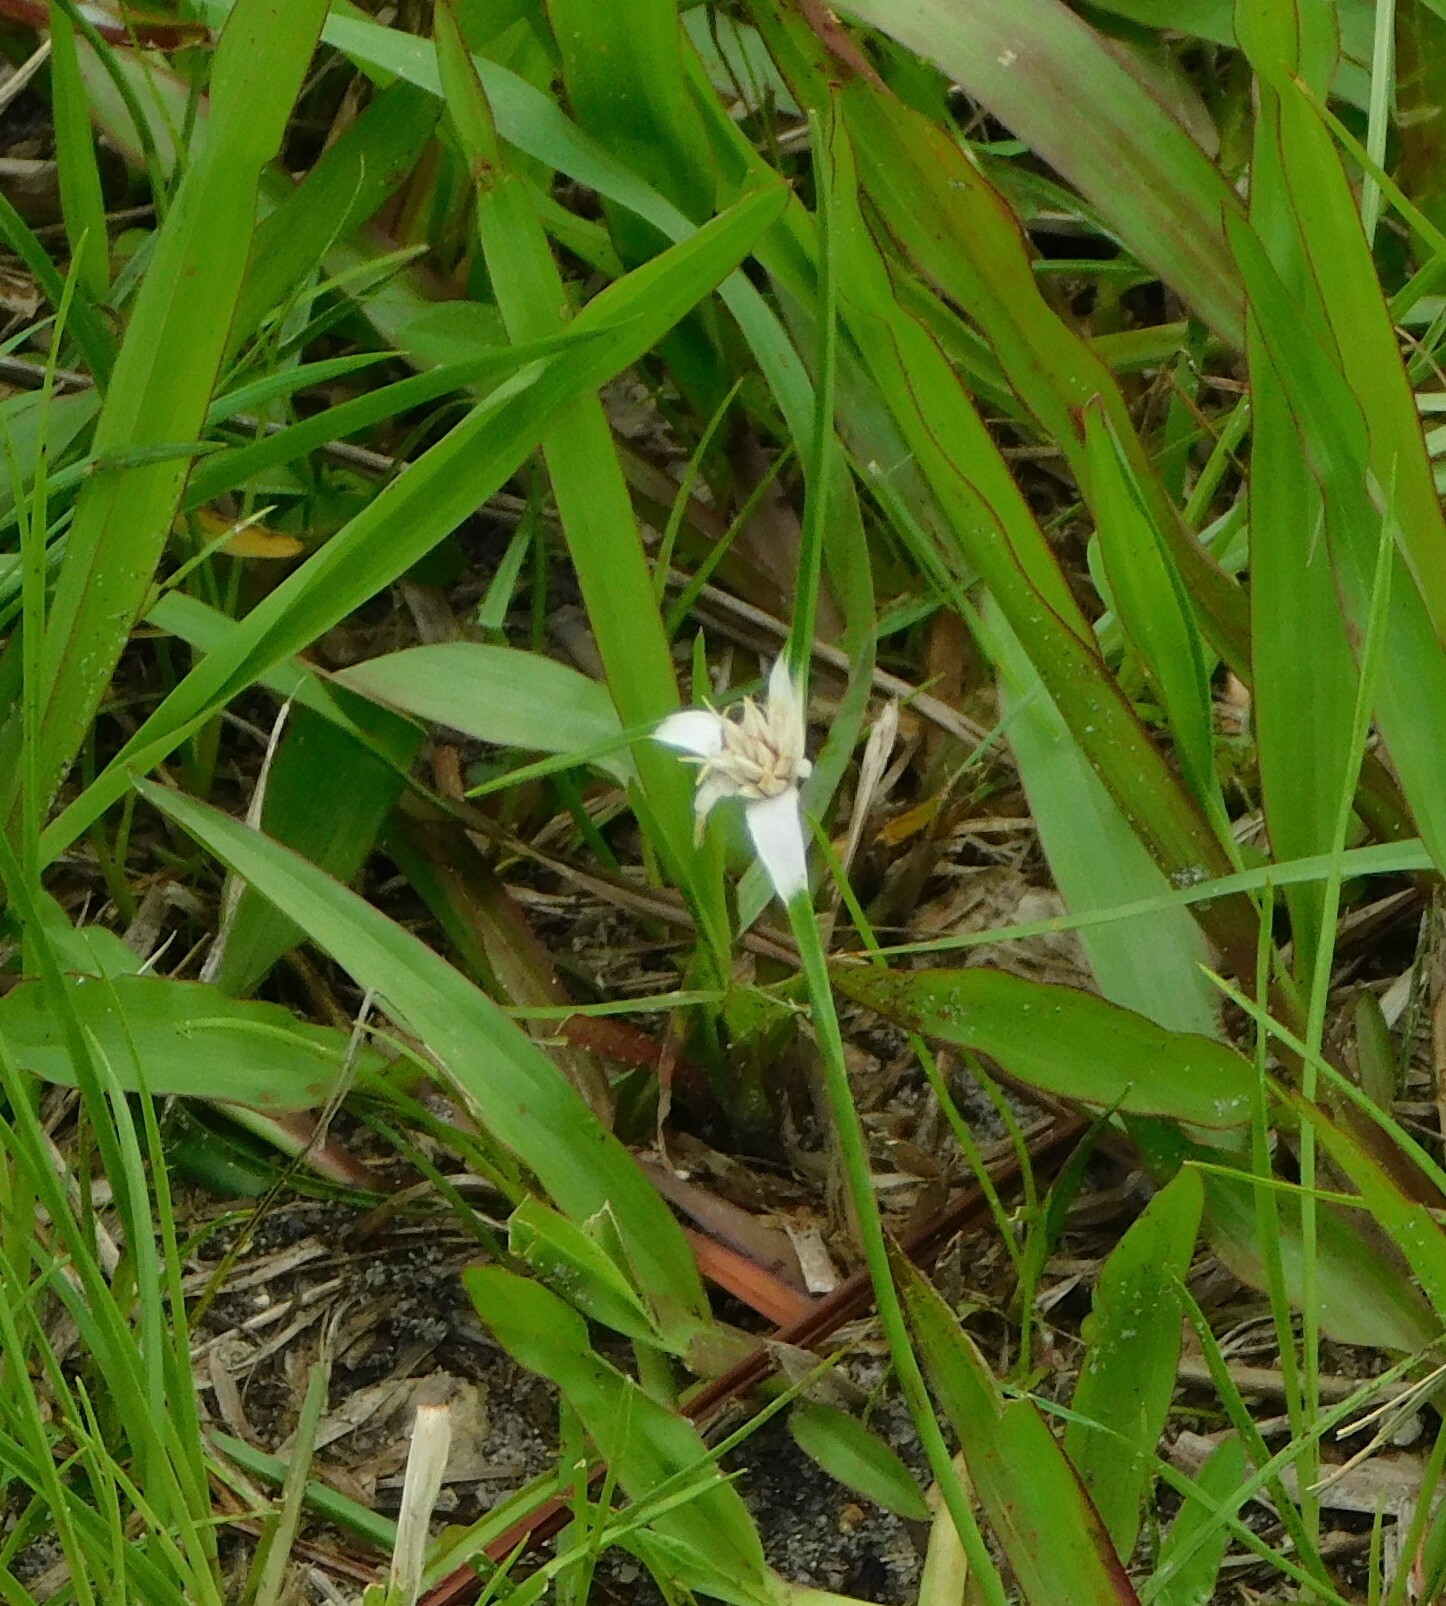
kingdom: Plantae
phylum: Tracheophyta
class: Liliopsida
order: Poales
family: Cyperaceae
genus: Rhynchospora
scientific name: Rhynchospora colorata
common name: Star sedge
